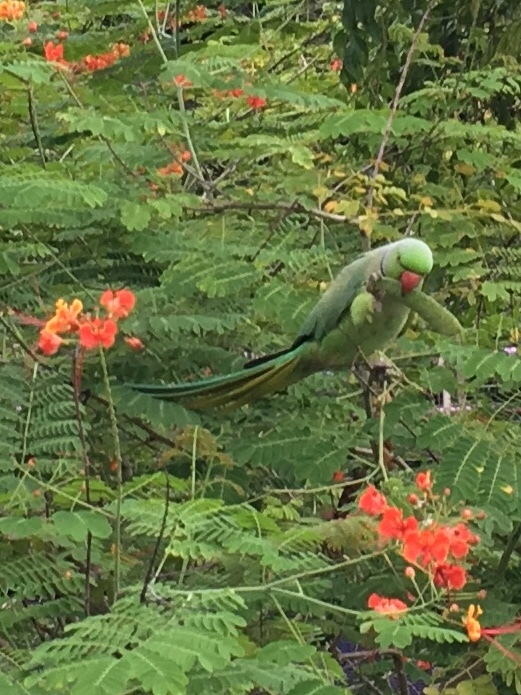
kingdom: Animalia
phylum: Chordata
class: Aves
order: Psittaciformes
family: Psittacidae
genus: Psittacula
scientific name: Psittacula krameri
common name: Rose-ringed parakeet
